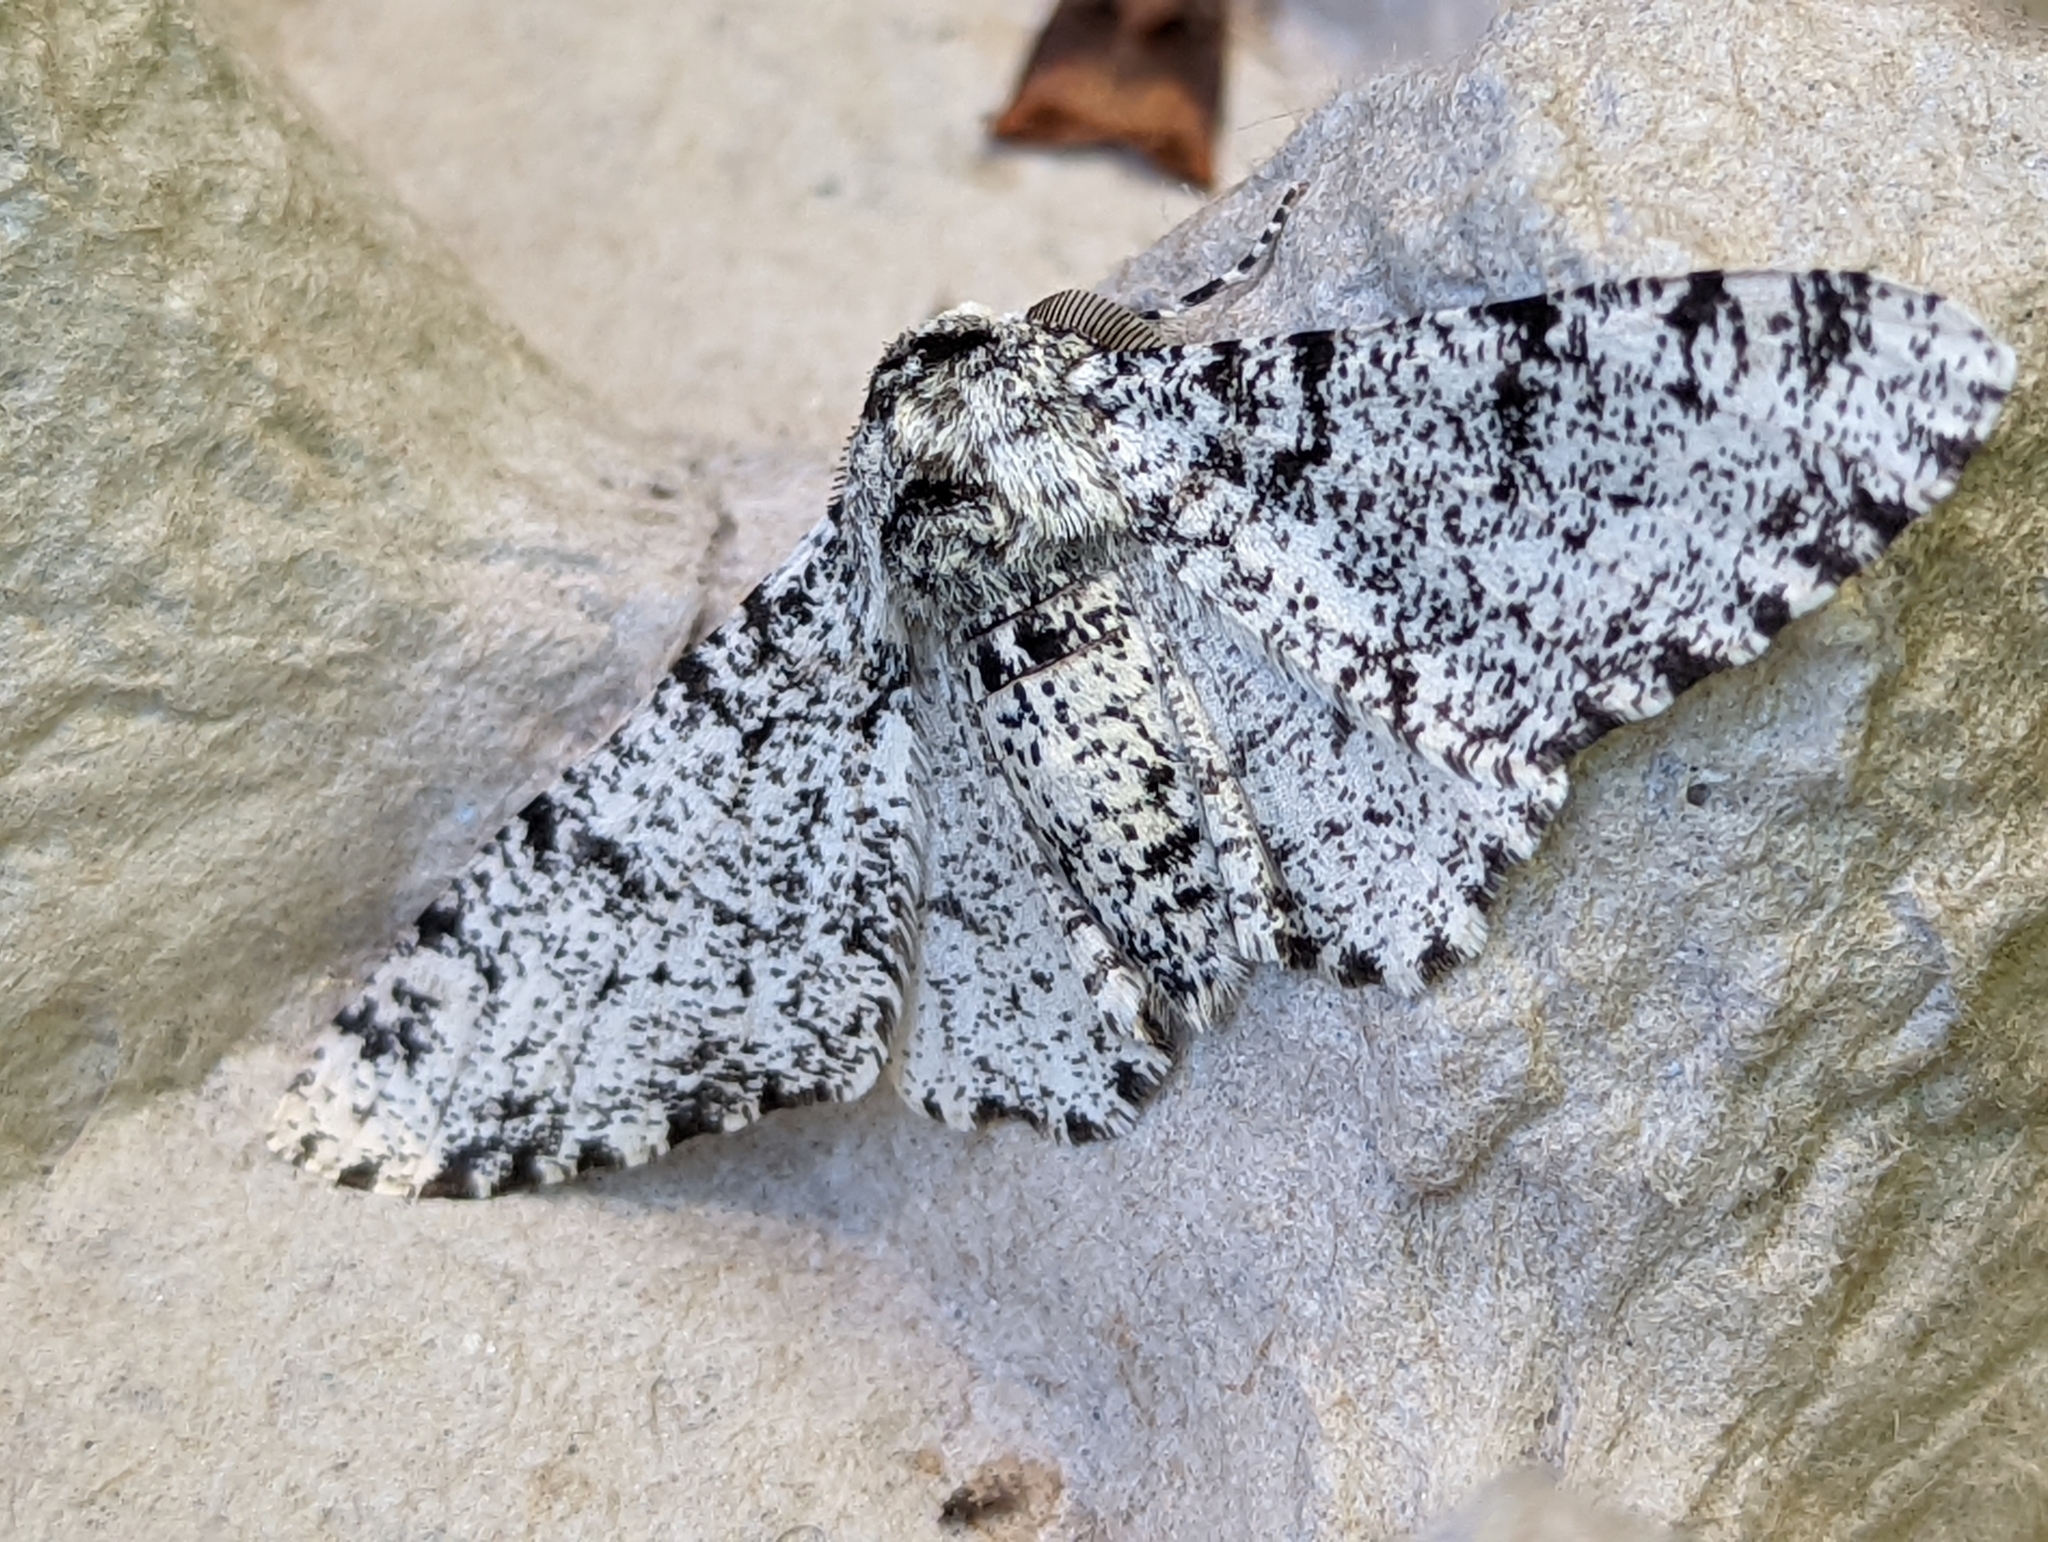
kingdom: Animalia
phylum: Arthropoda
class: Insecta
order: Lepidoptera
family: Geometridae
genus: Biston
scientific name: Biston betularia
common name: Peppered moth
